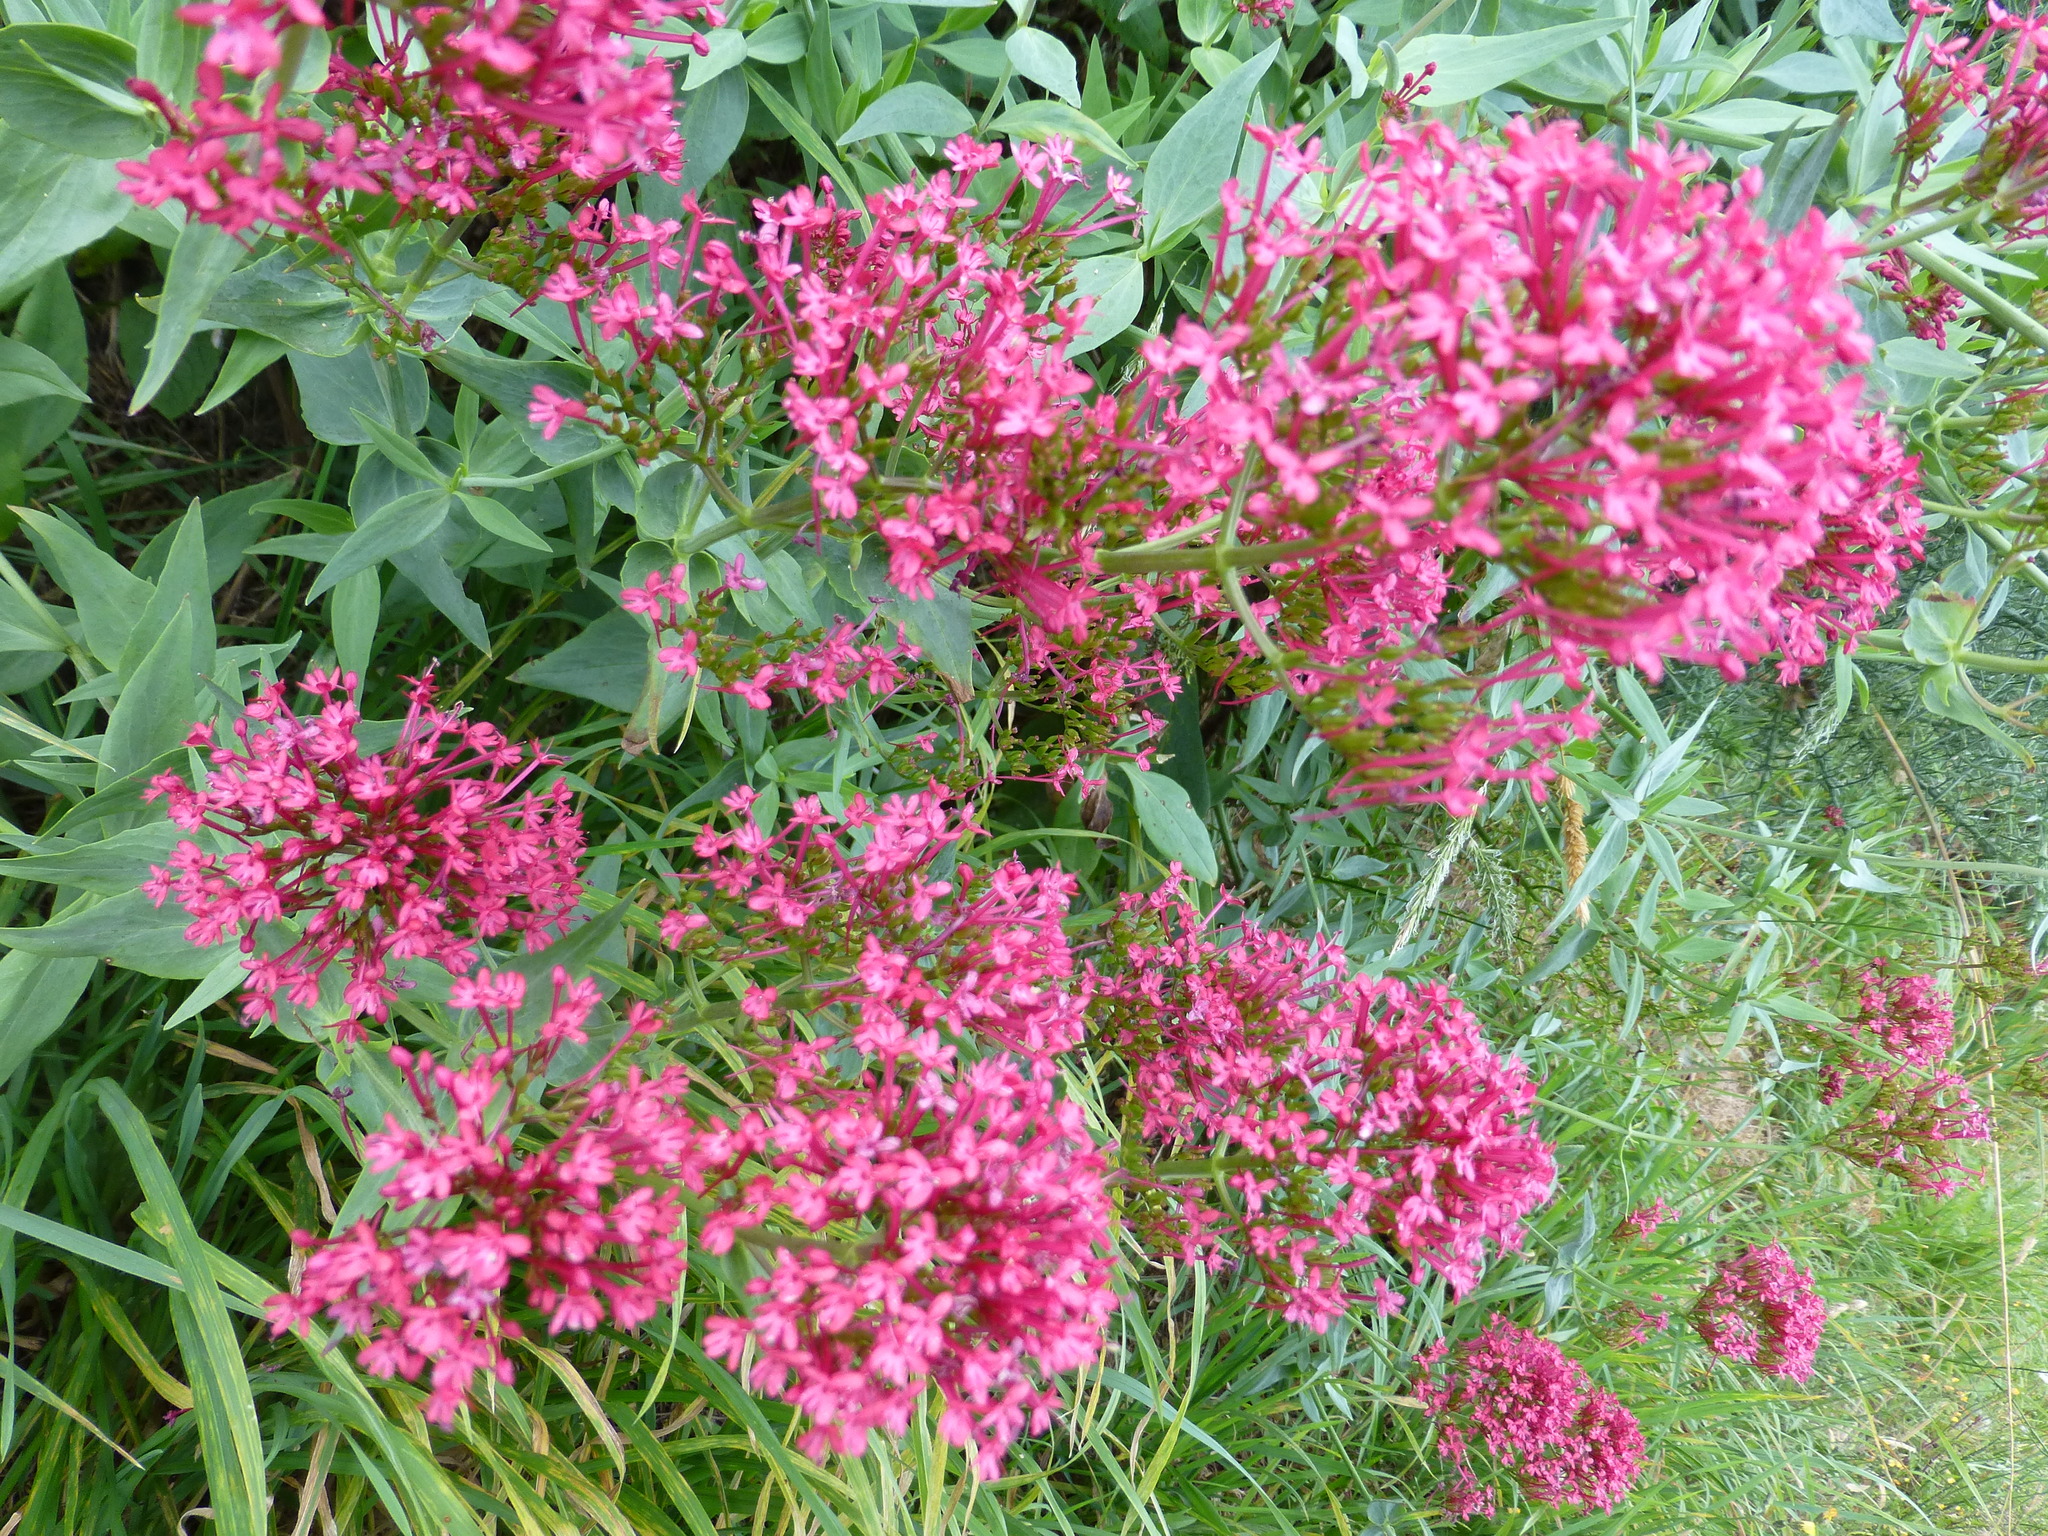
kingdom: Plantae
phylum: Tracheophyta
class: Magnoliopsida
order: Dipsacales
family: Caprifoliaceae
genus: Centranthus
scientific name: Centranthus ruber
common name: Red valerian
